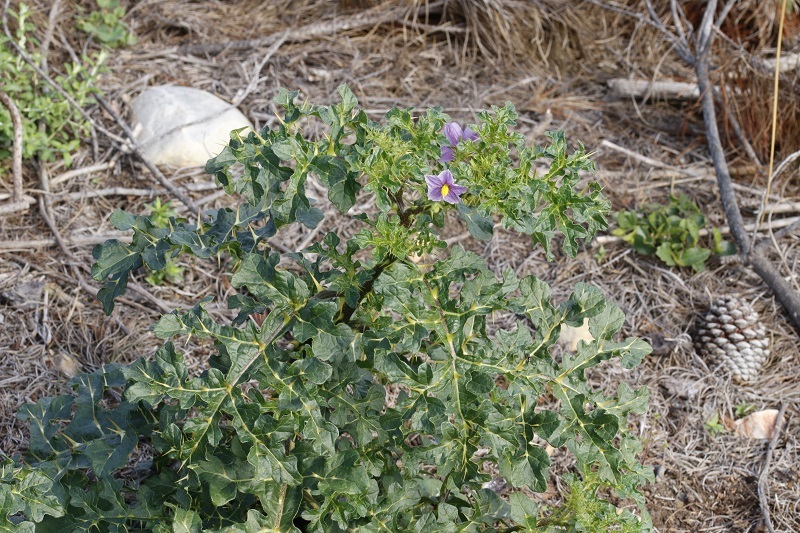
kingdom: Plantae
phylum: Tracheophyta
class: Magnoliopsida
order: Solanales
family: Solanaceae
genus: Solanum
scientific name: Solanum linnaeanum
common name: Nightshade
